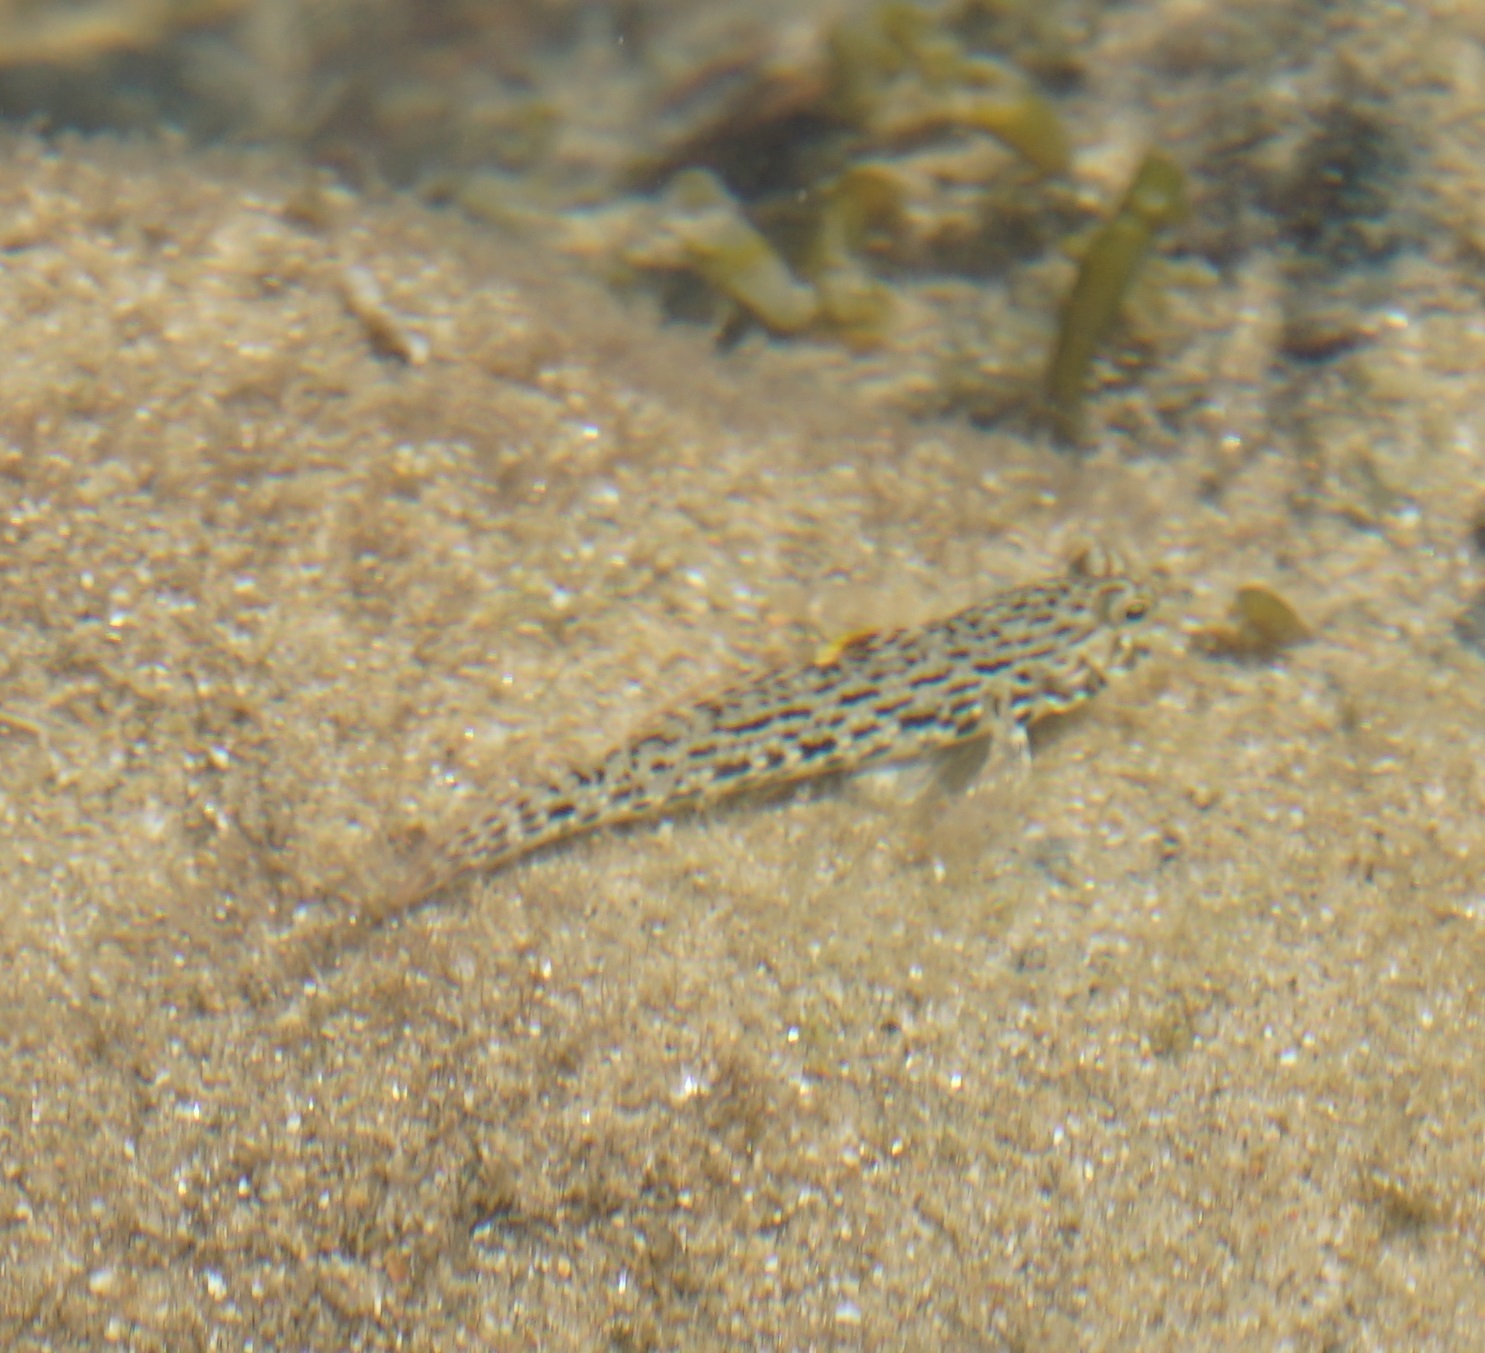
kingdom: Animalia
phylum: Chordata
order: Perciformes
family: Gobiidae
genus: Istigobius
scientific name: Istigobius ornatus
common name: Ornate goby
